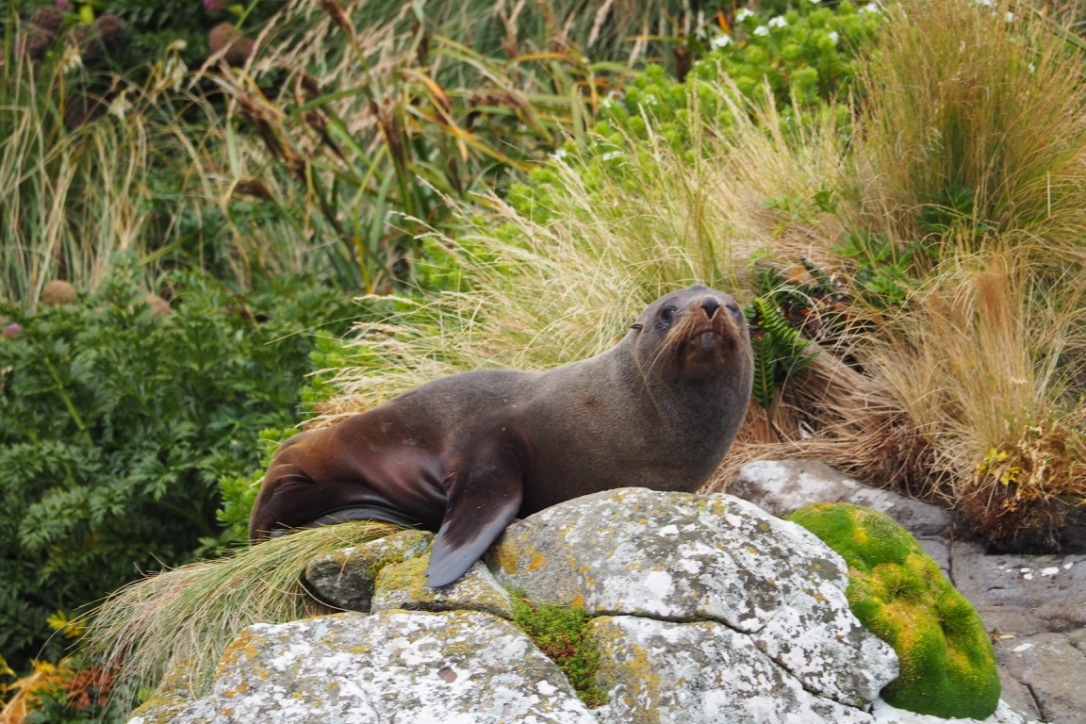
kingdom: Animalia
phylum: Chordata
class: Mammalia
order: Carnivora
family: Otariidae
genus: Arctocephalus
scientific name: Arctocephalus forsteri
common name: New zealand fur seal
